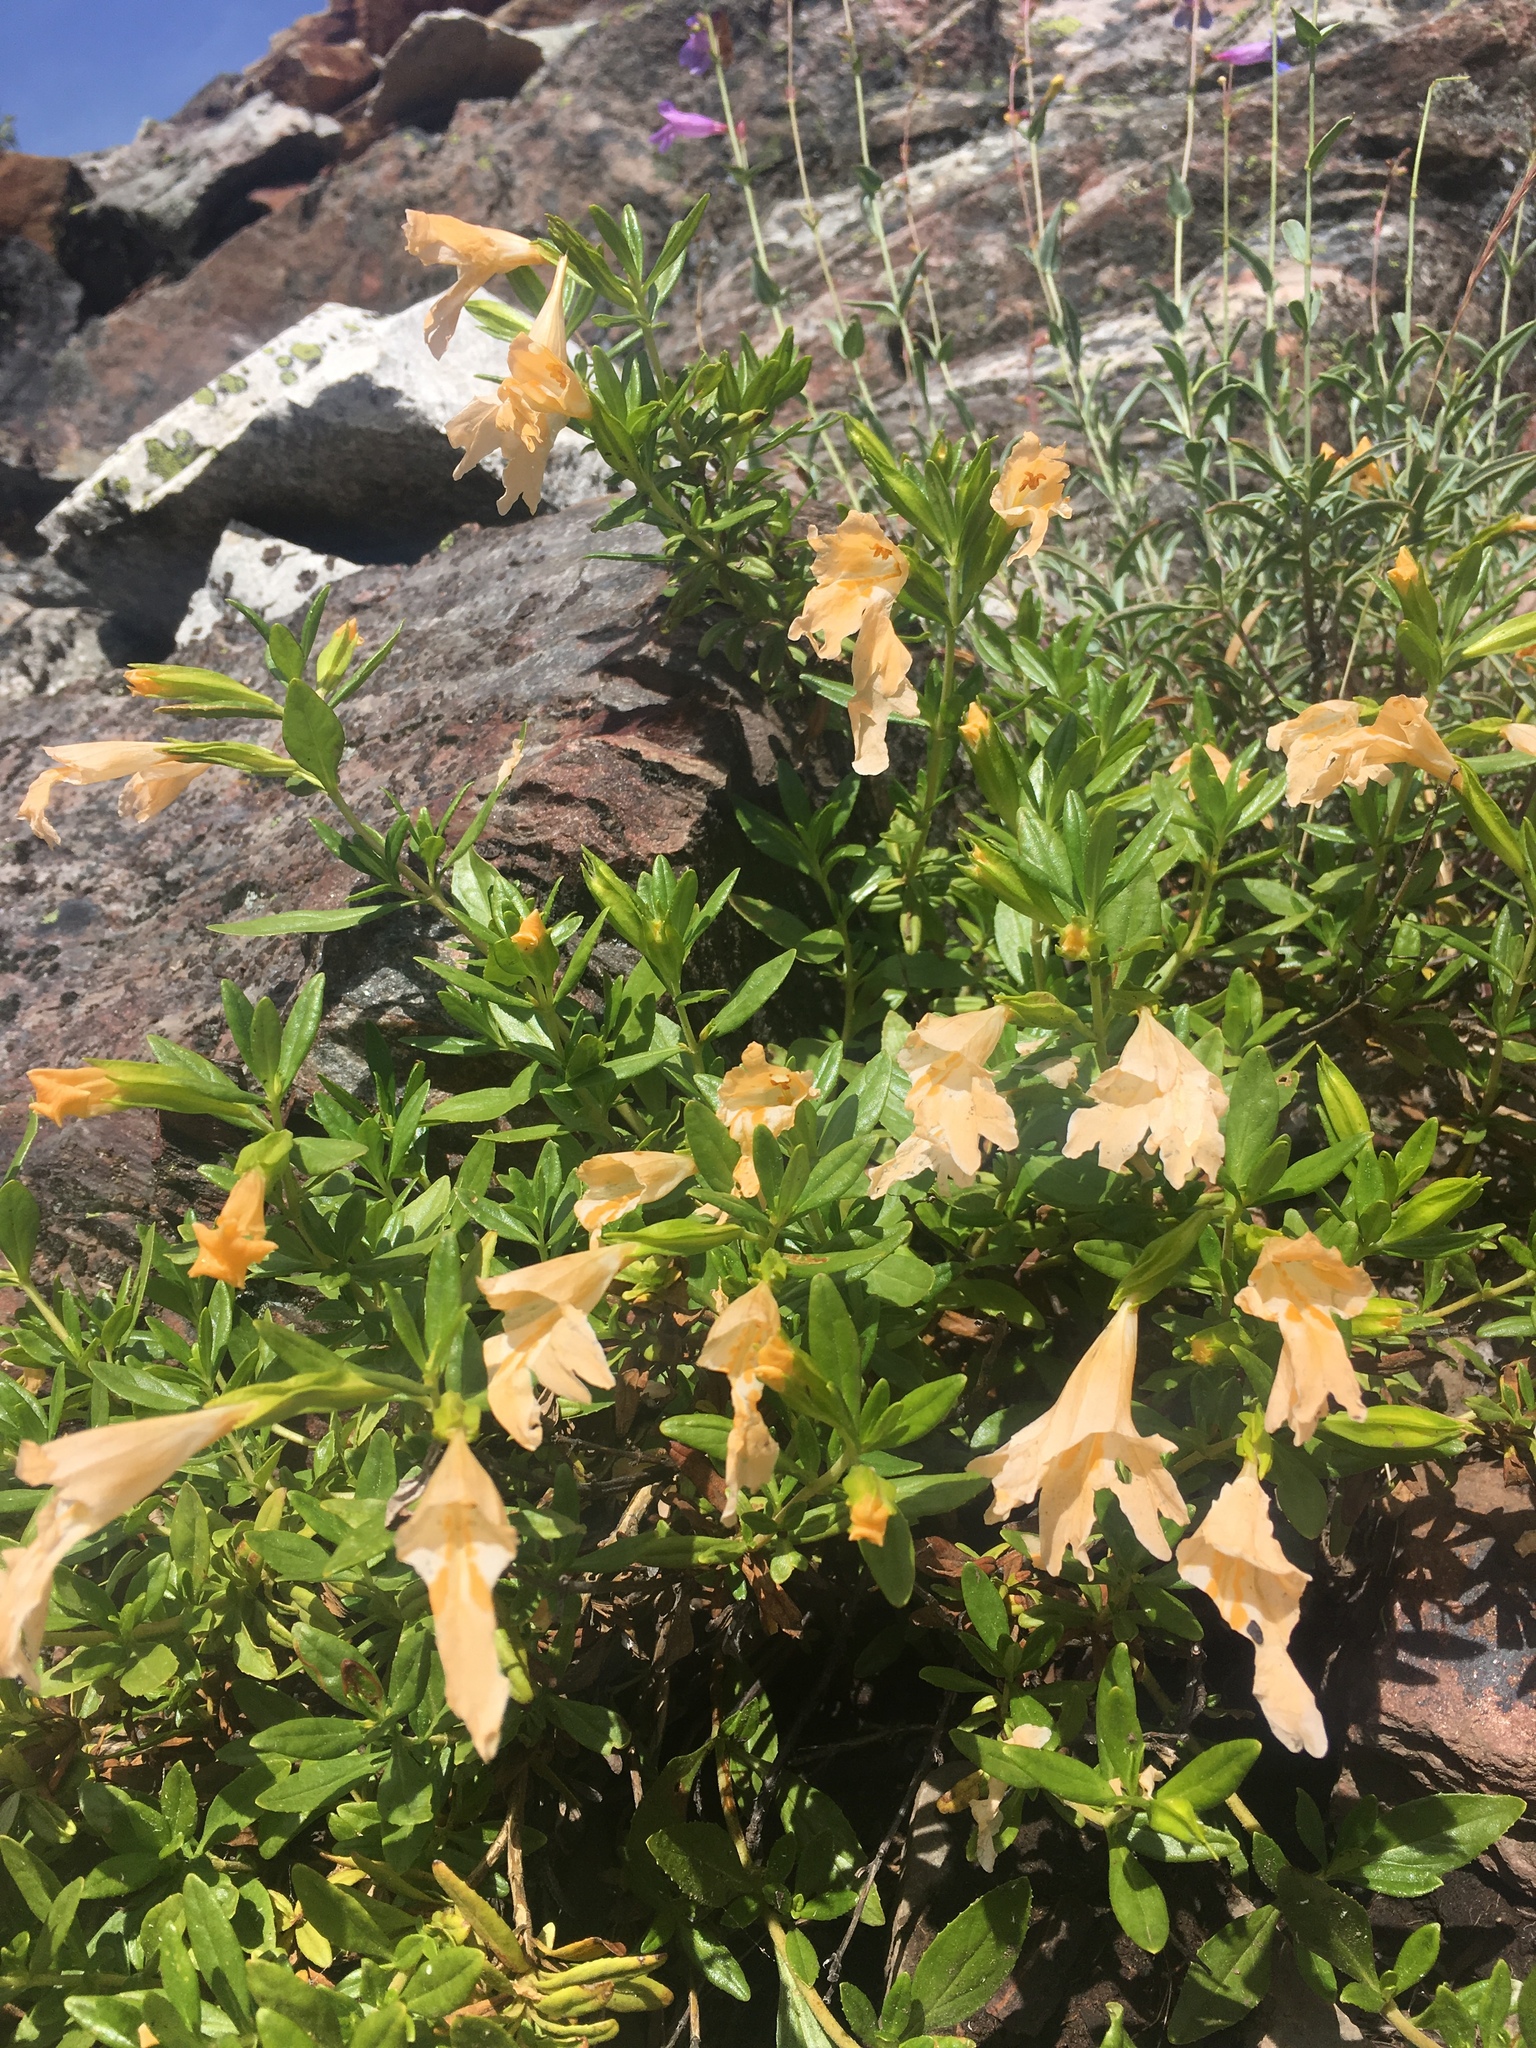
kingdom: Plantae
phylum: Tracheophyta
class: Magnoliopsida
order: Lamiales
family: Phrymaceae
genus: Diplacus
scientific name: Diplacus grandiflorus
